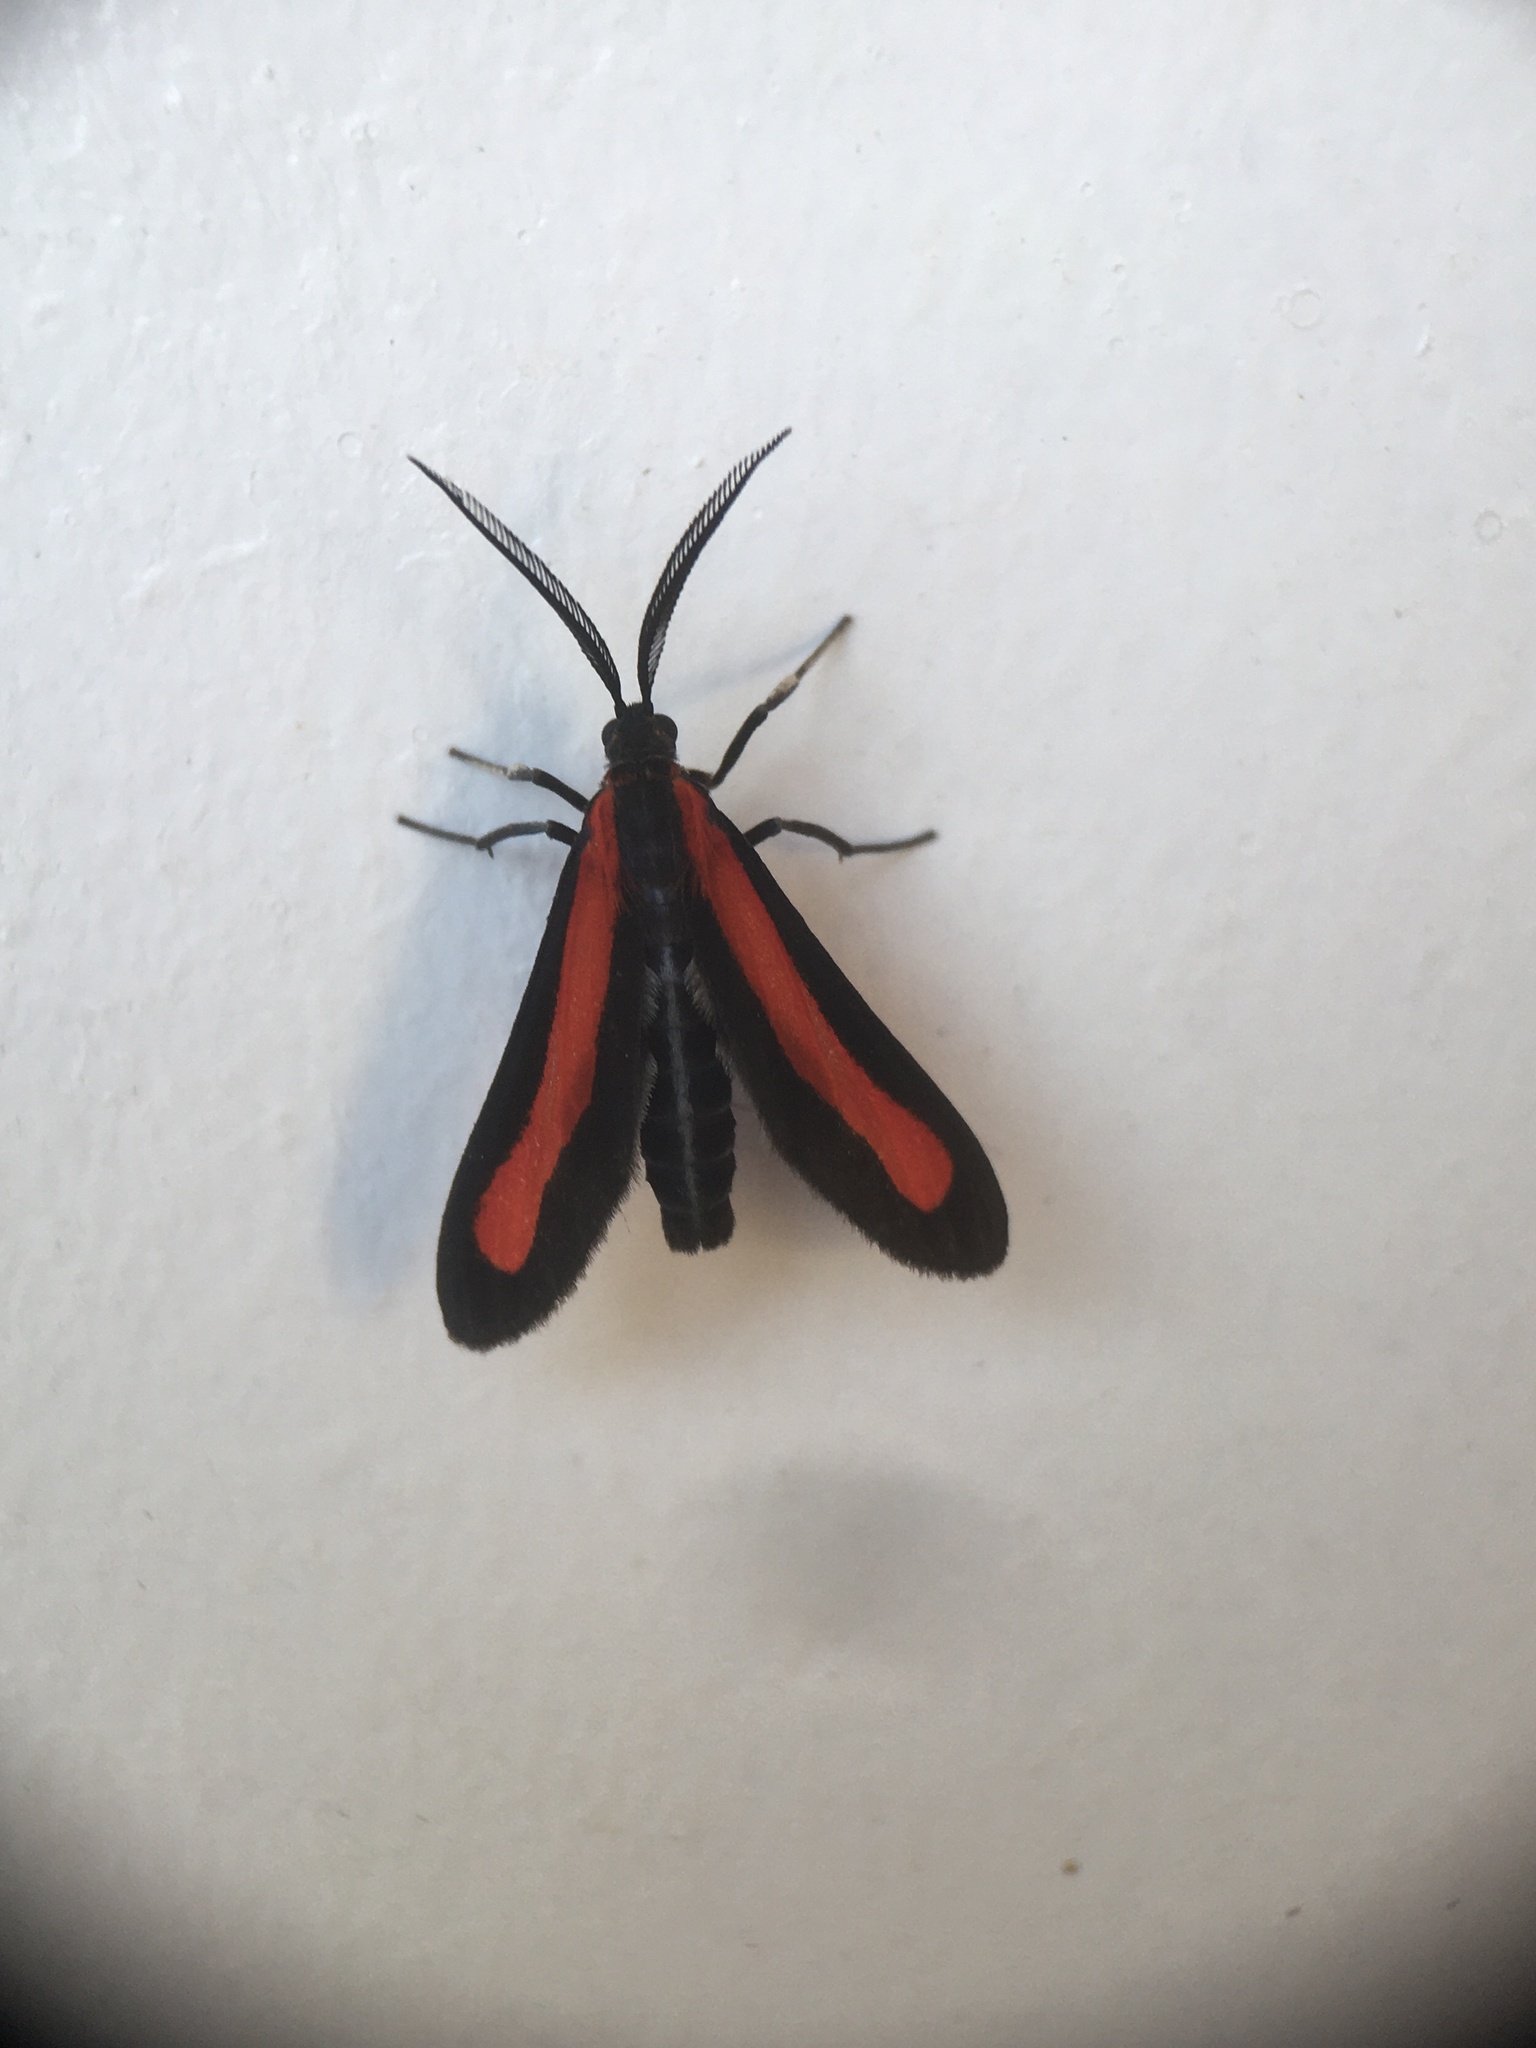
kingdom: Animalia
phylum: Arthropoda
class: Insecta
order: Lepidoptera
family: Erebidae
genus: Tipulodes
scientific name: Tipulodes ima
